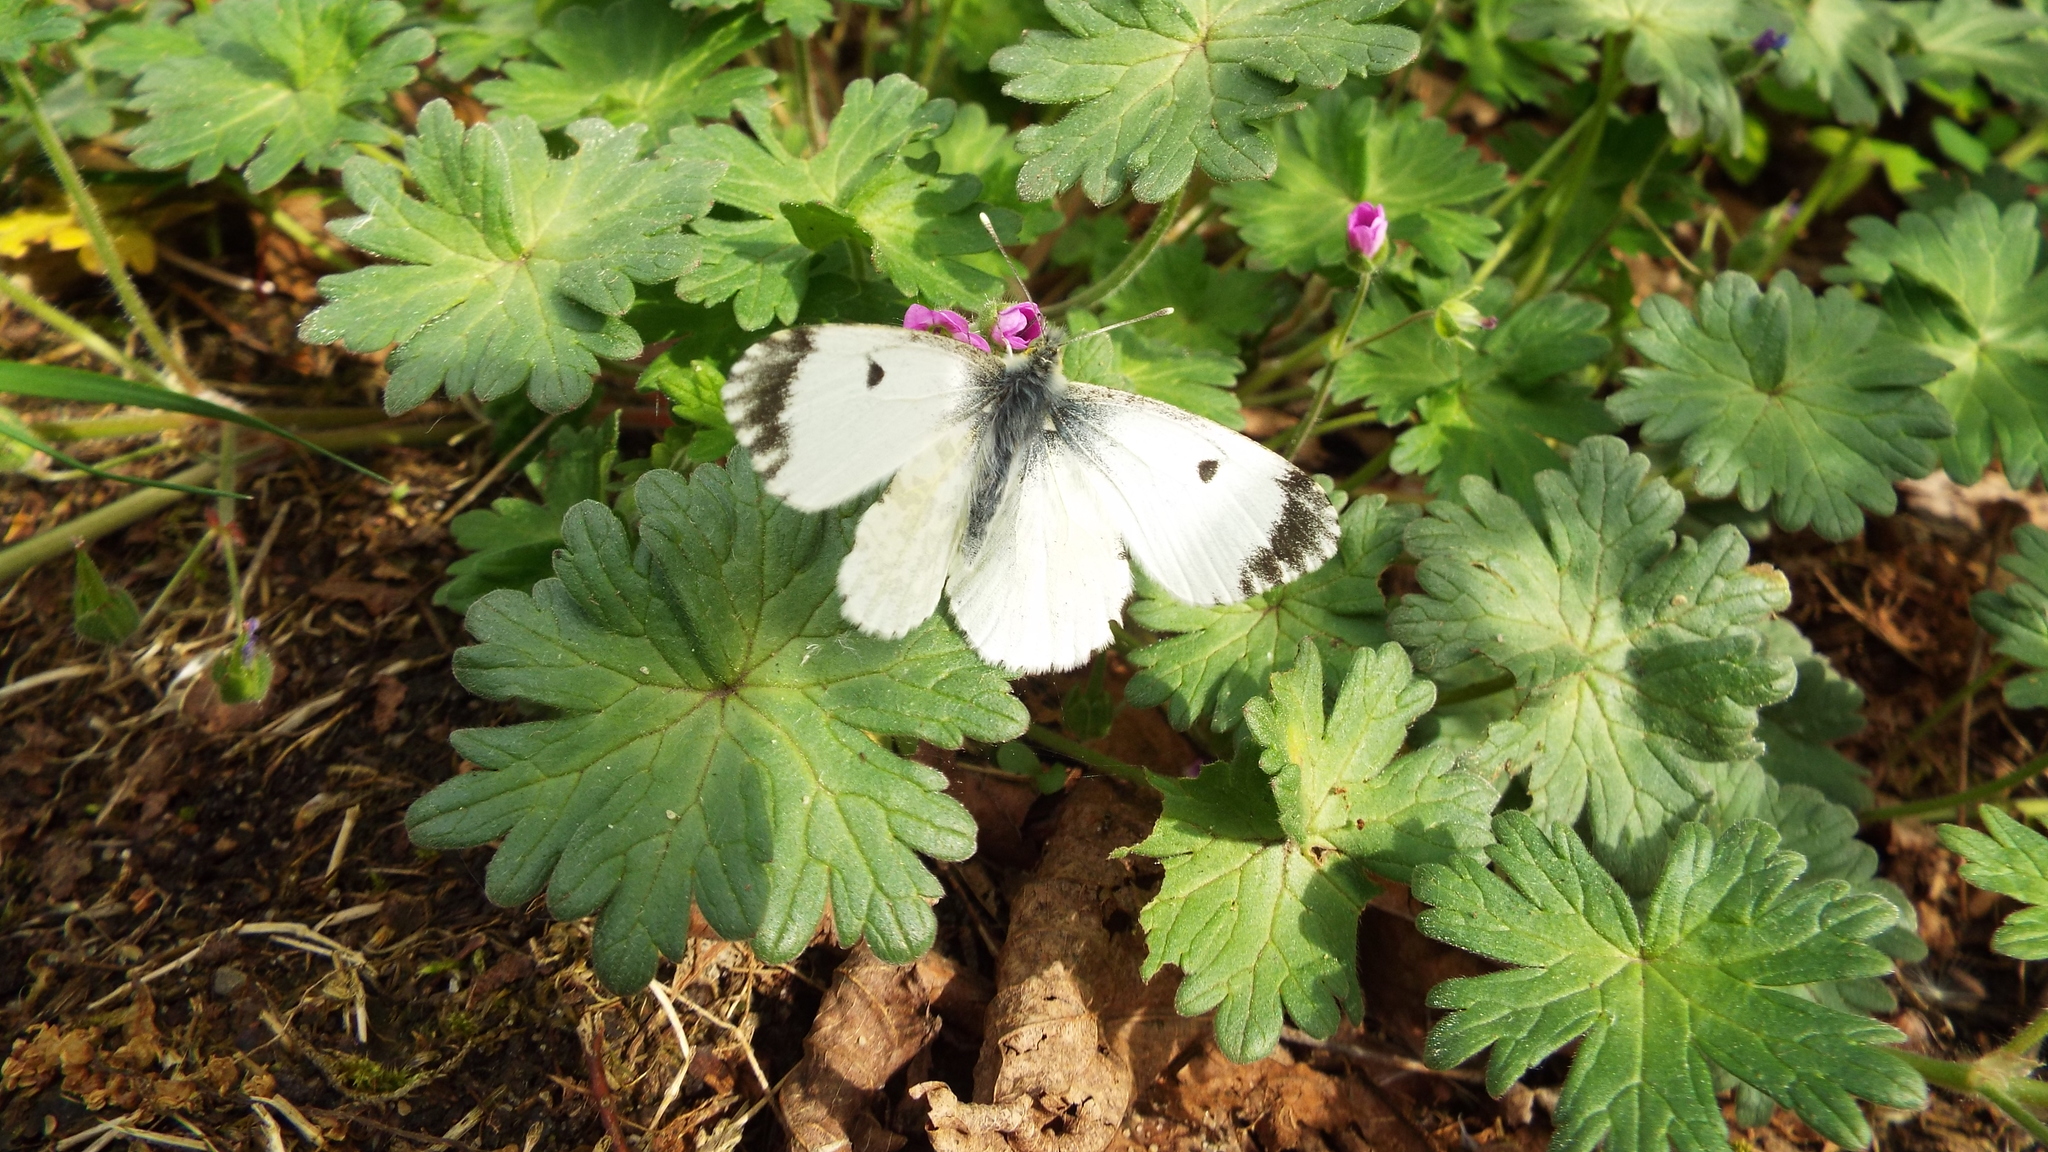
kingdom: Animalia
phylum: Arthropoda
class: Insecta
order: Lepidoptera
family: Pieridae
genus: Anthocharis
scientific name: Anthocharis cardamines
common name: Orange-tip
